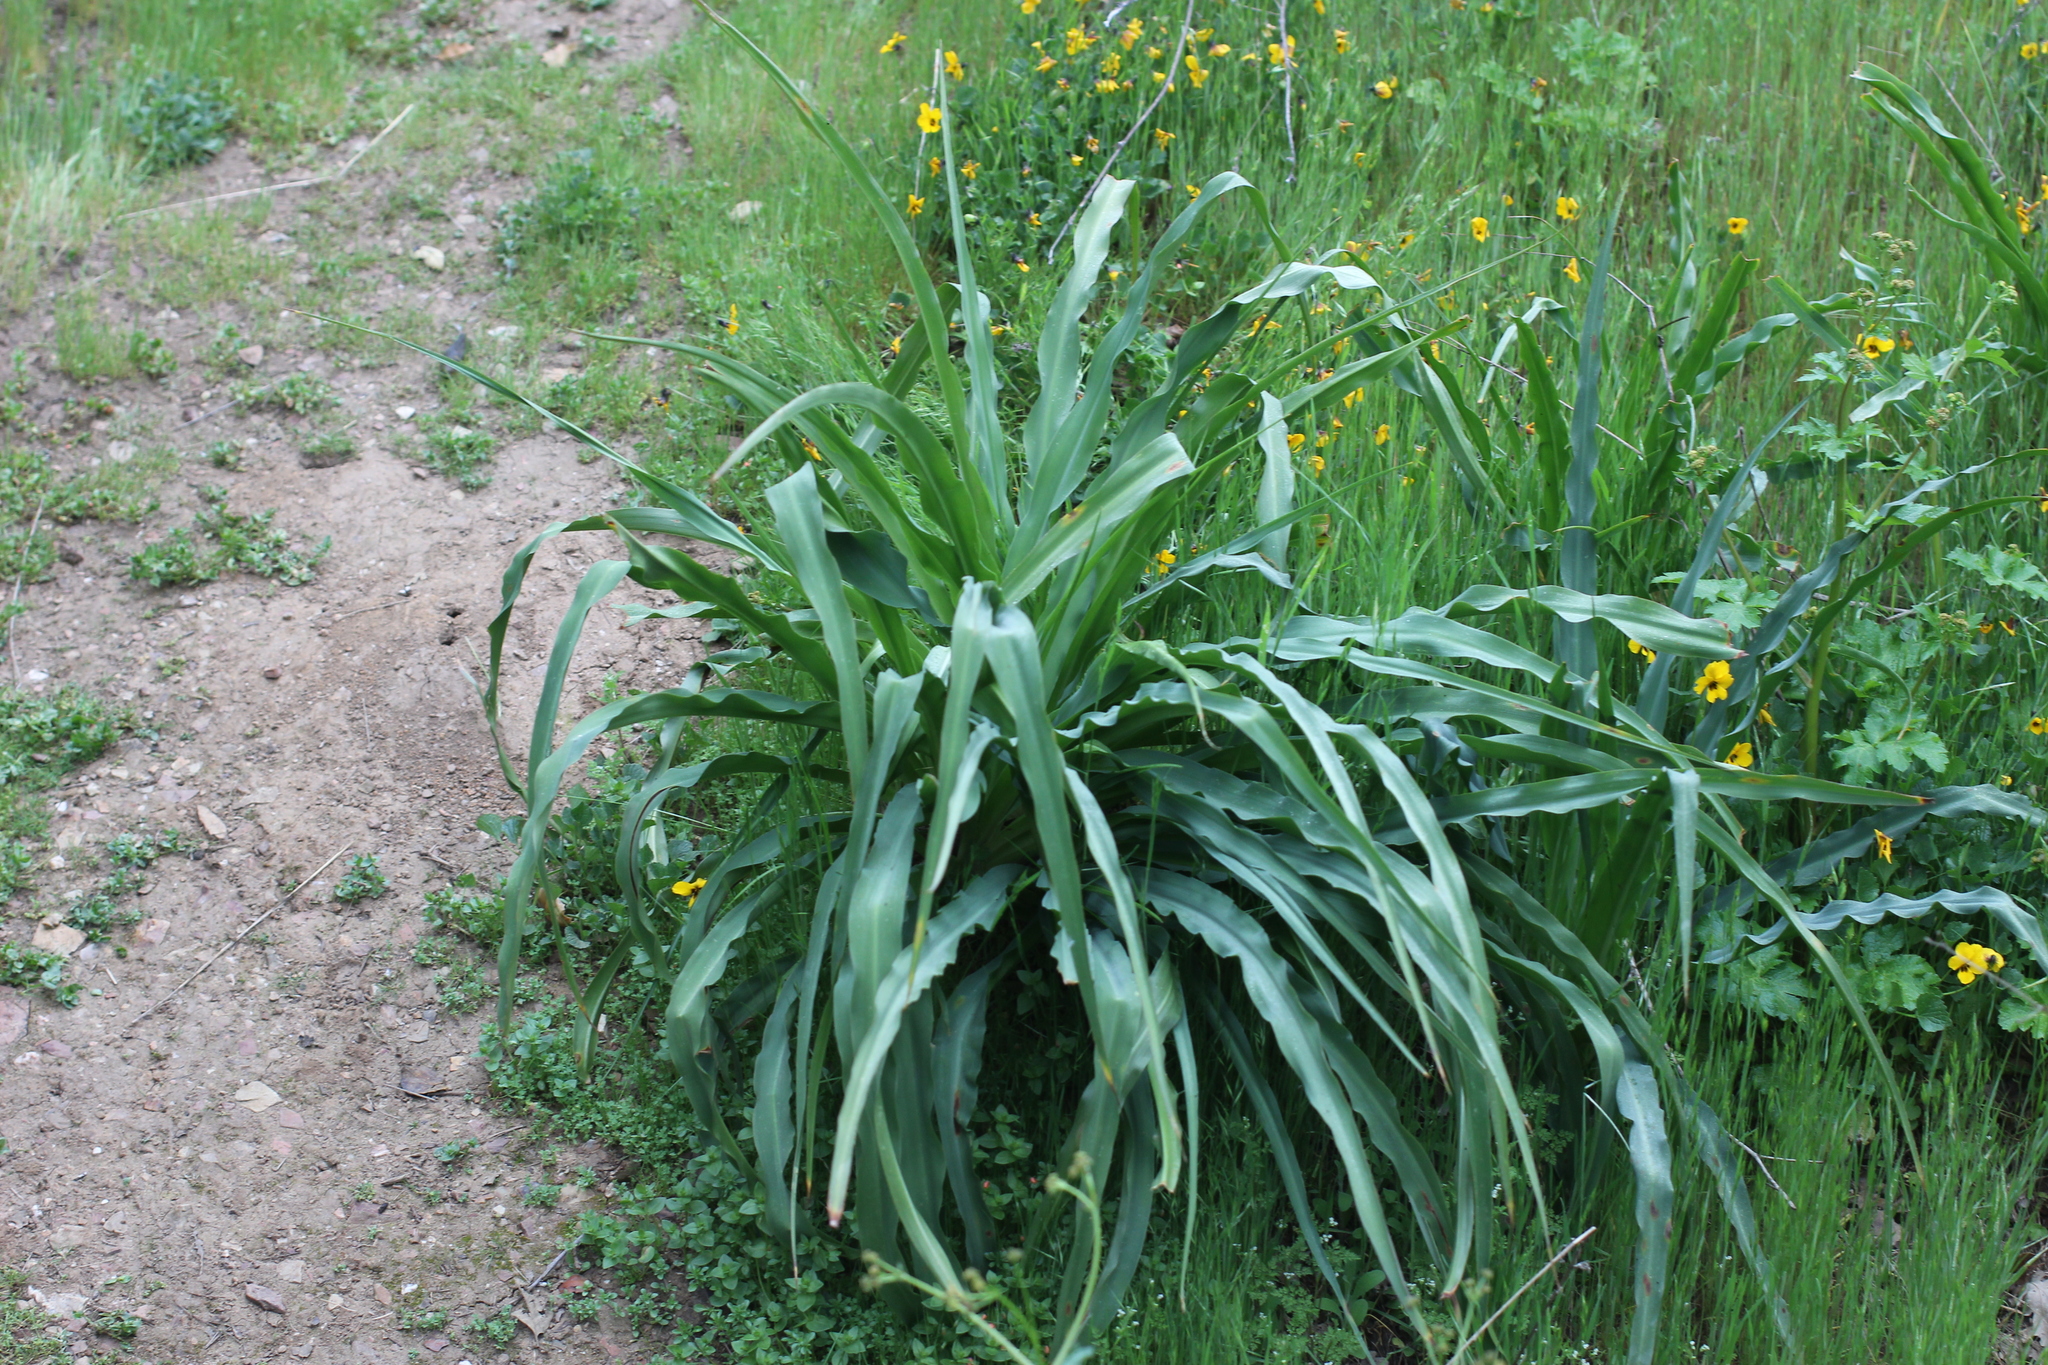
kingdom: Plantae
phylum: Tracheophyta
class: Liliopsida
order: Asparagales
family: Asparagaceae
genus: Chlorogalum
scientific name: Chlorogalum pomeridianum
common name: Amole
